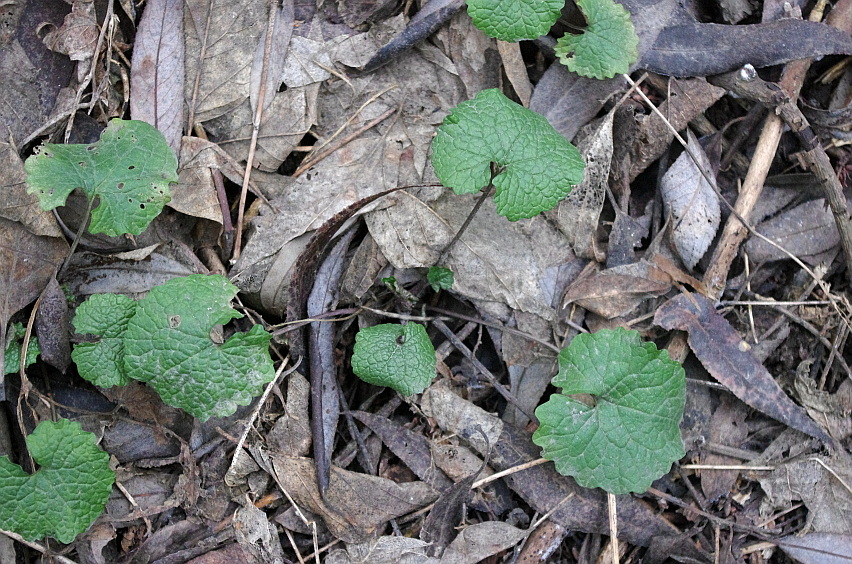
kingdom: Plantae
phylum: Tracheophyta
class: Magnoliopsida
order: Brassicales
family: Brassicaceae
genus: Alliaria
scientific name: Alliaria petiolata
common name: Garlic mustard
